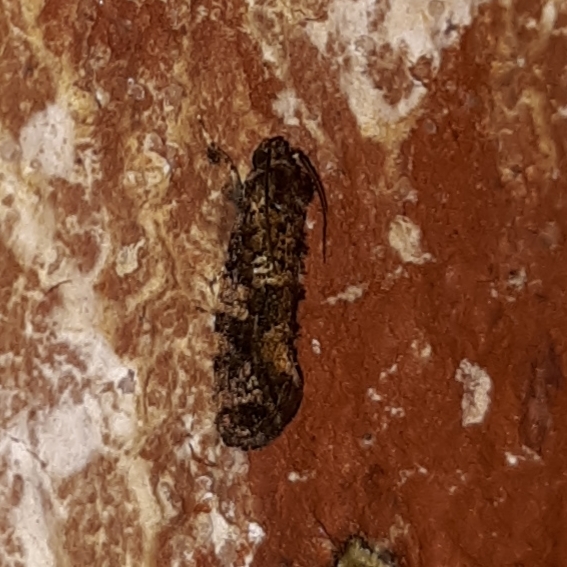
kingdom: Animalia
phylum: Arthropoda
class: Insecta
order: Lepidoptera
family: Tineidae
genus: Acrolophus
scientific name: Acrolophus cressoni
